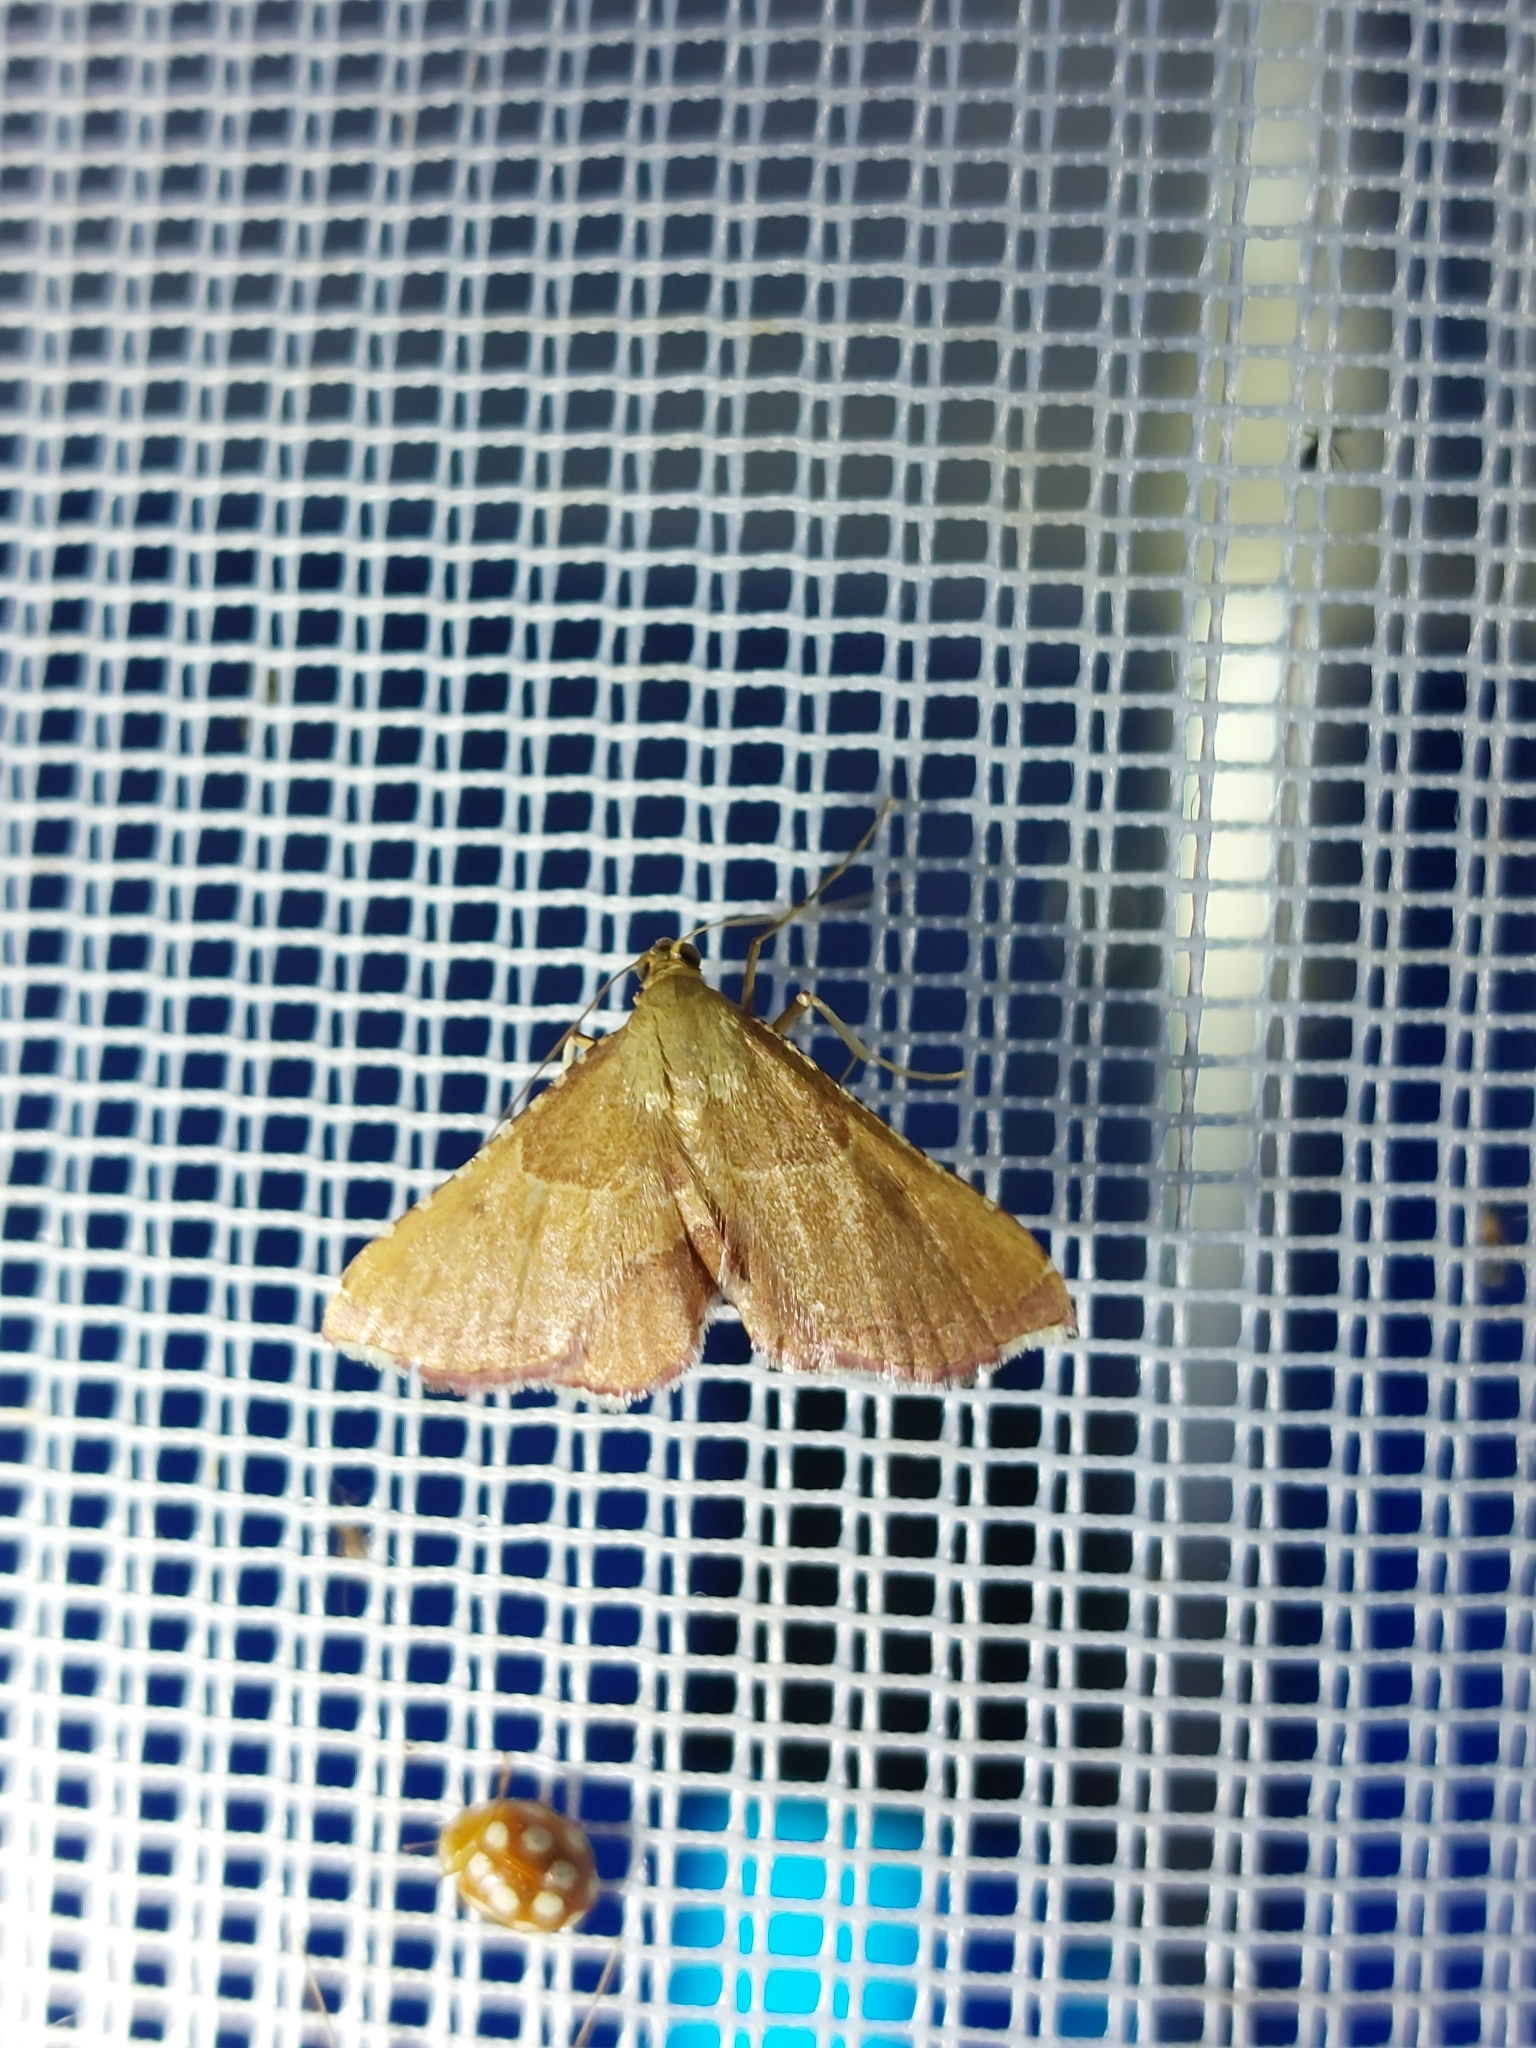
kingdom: Animalia
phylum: Arthropoda
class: Insecta
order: Lepidoptera
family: Pyralidae
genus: Endotricha
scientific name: Endotricha flammealis
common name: Rosy tabby
